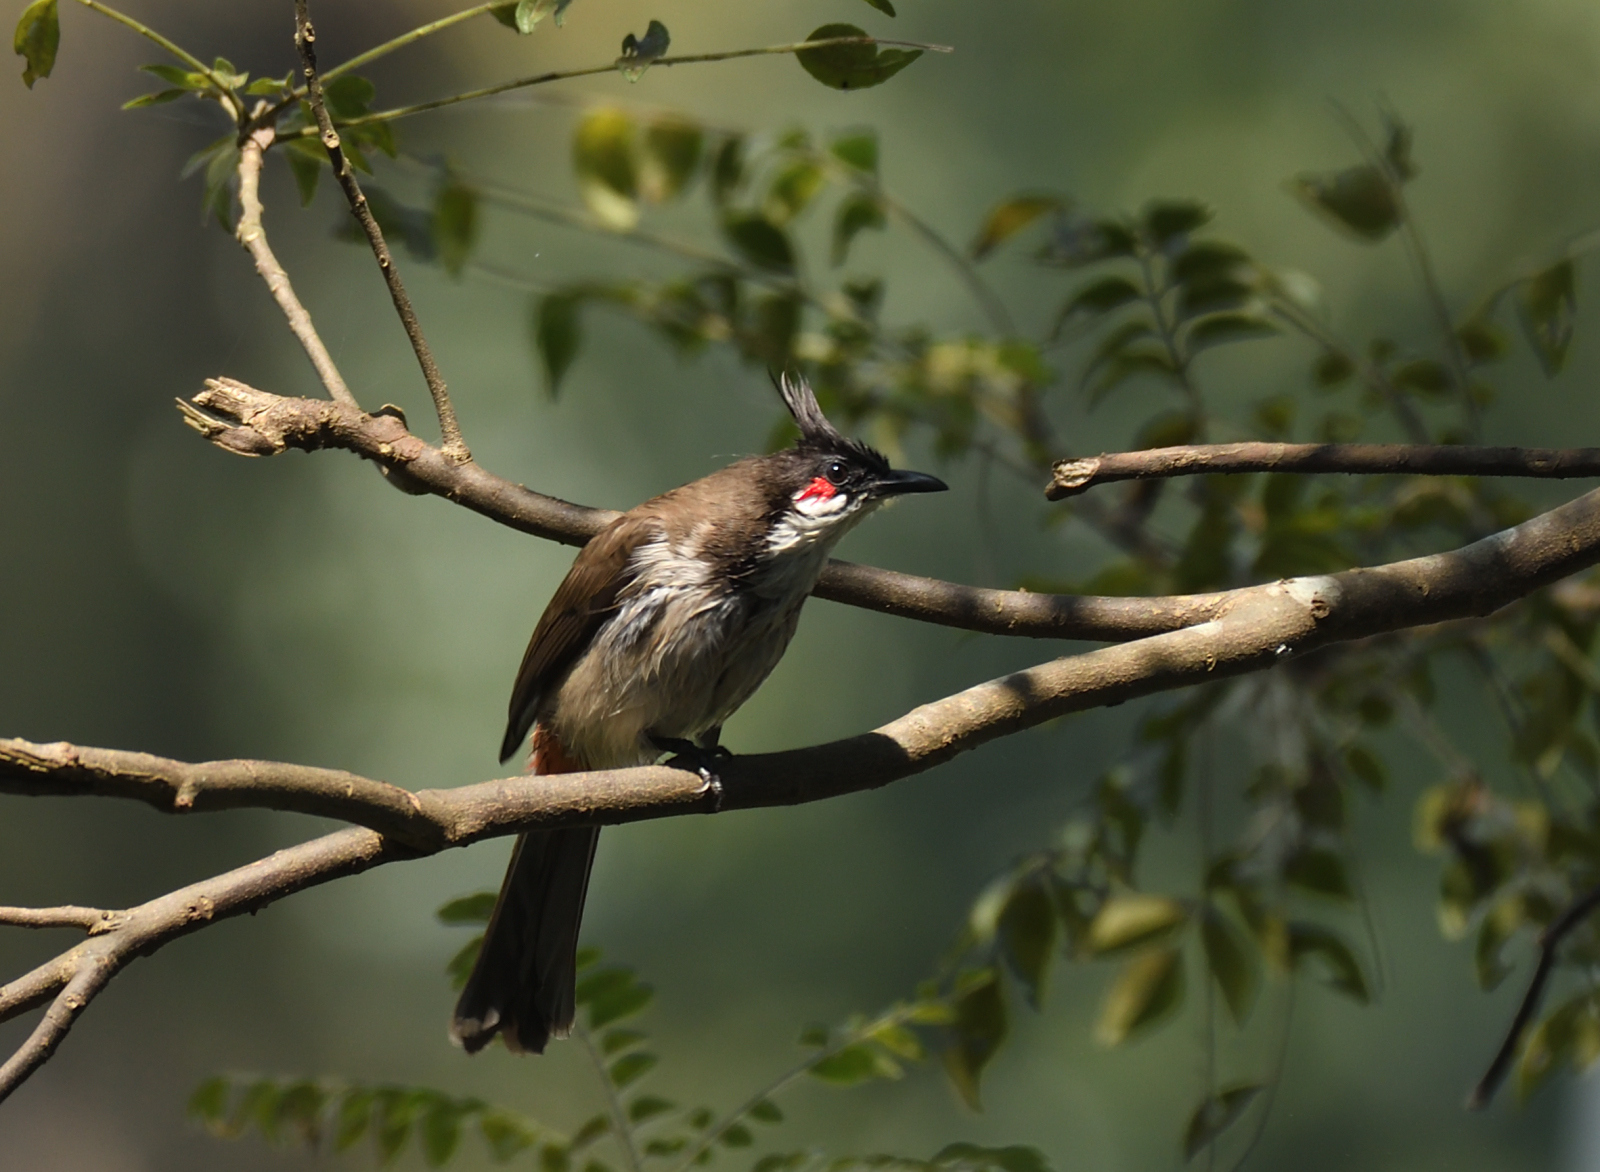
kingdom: Animalia
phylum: Chordata
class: Aves
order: Passeriformes
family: Pycnonotidae
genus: Pycnonotus
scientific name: Pycnonotus jocosus
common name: Red-whiskered bulbul
